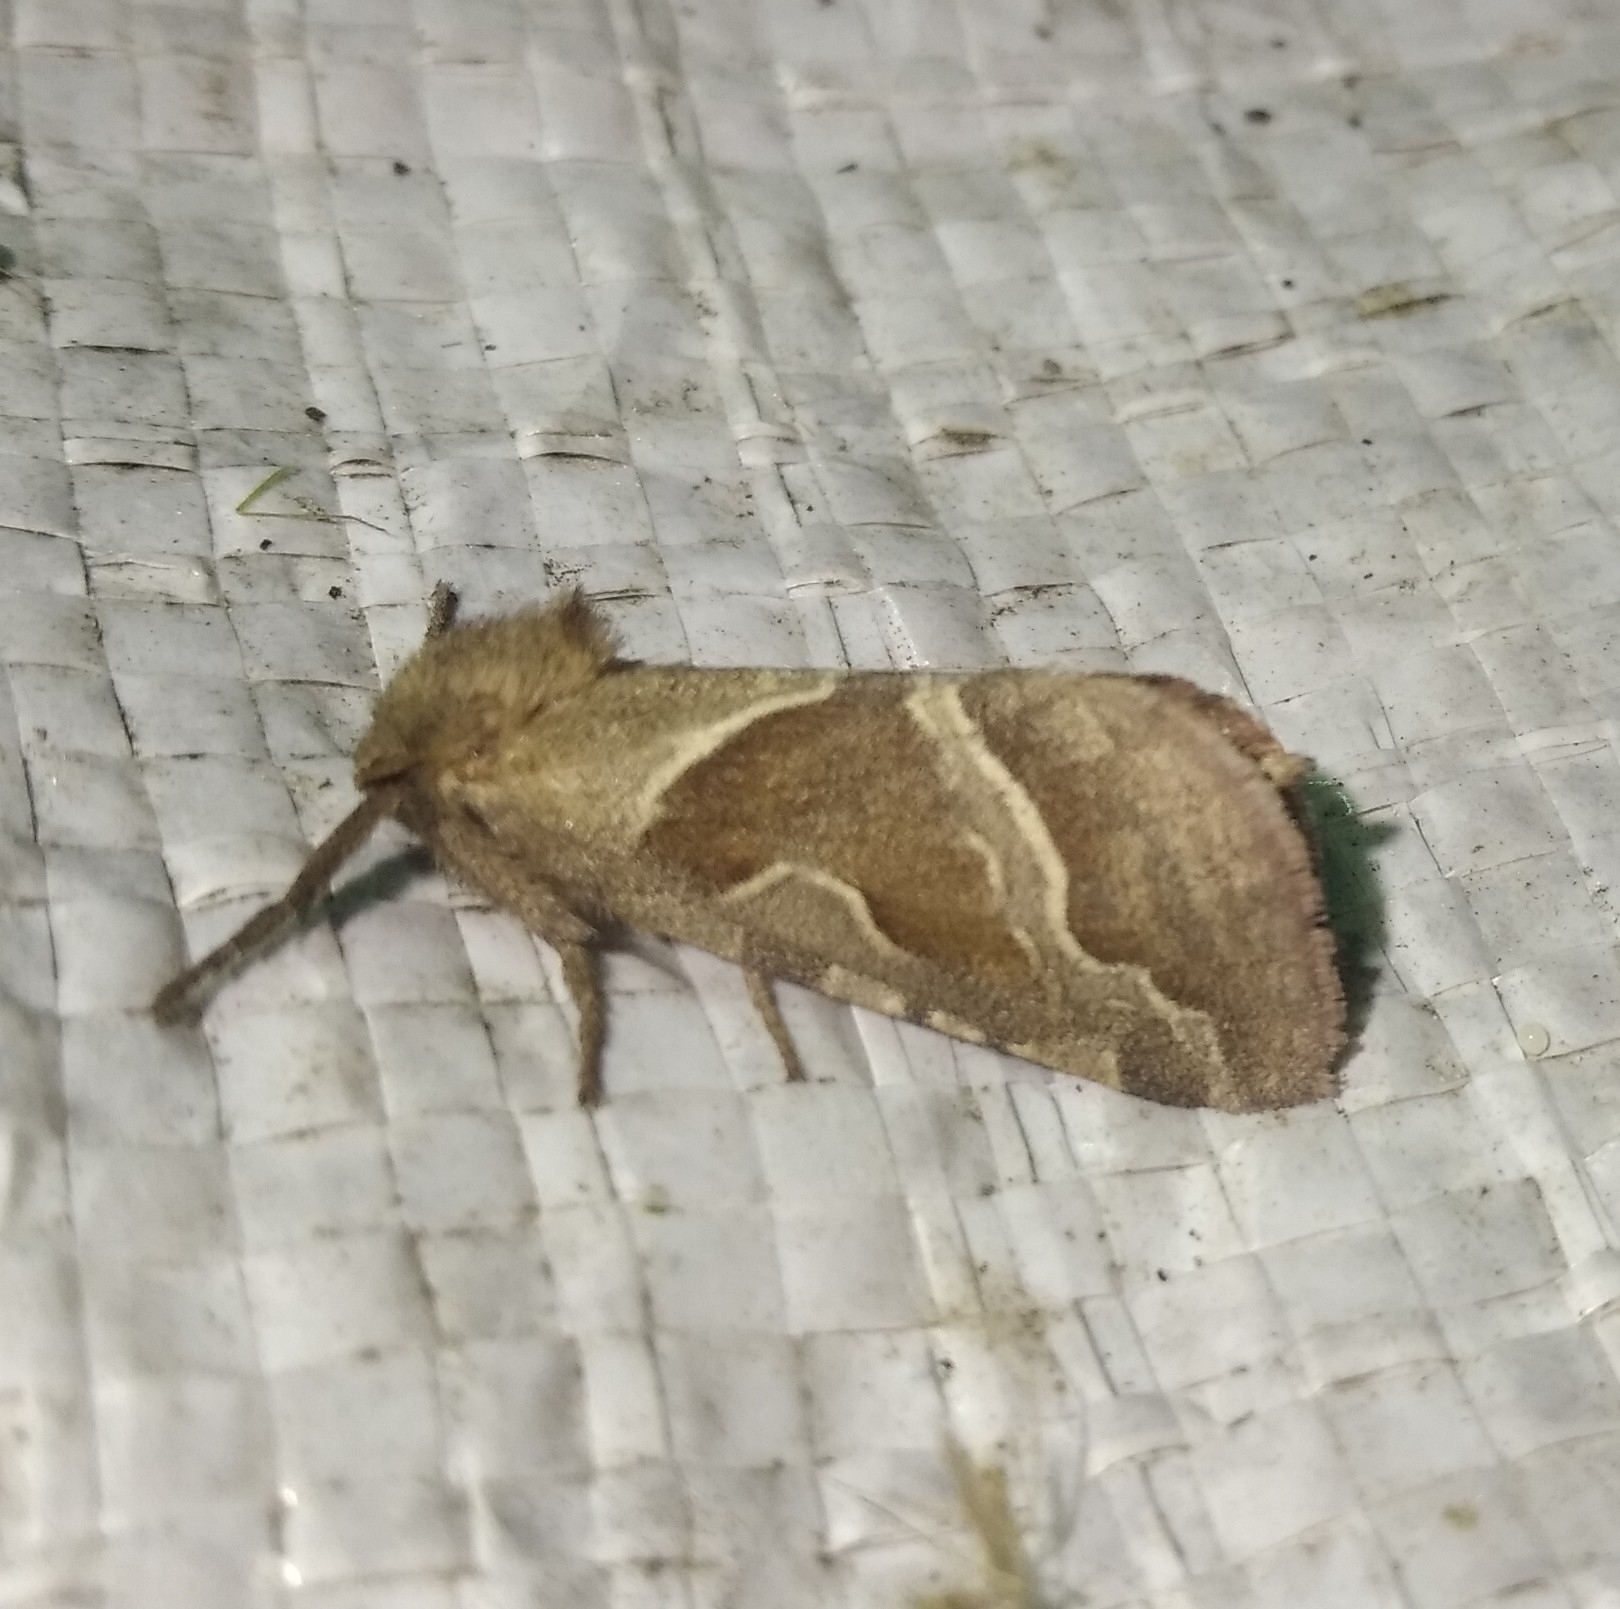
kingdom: Animalia
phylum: Arthropoda
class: Insecta
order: Lepidoptera
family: Hepialidae
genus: Triodia
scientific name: Triodia sylvina
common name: Orange swift
